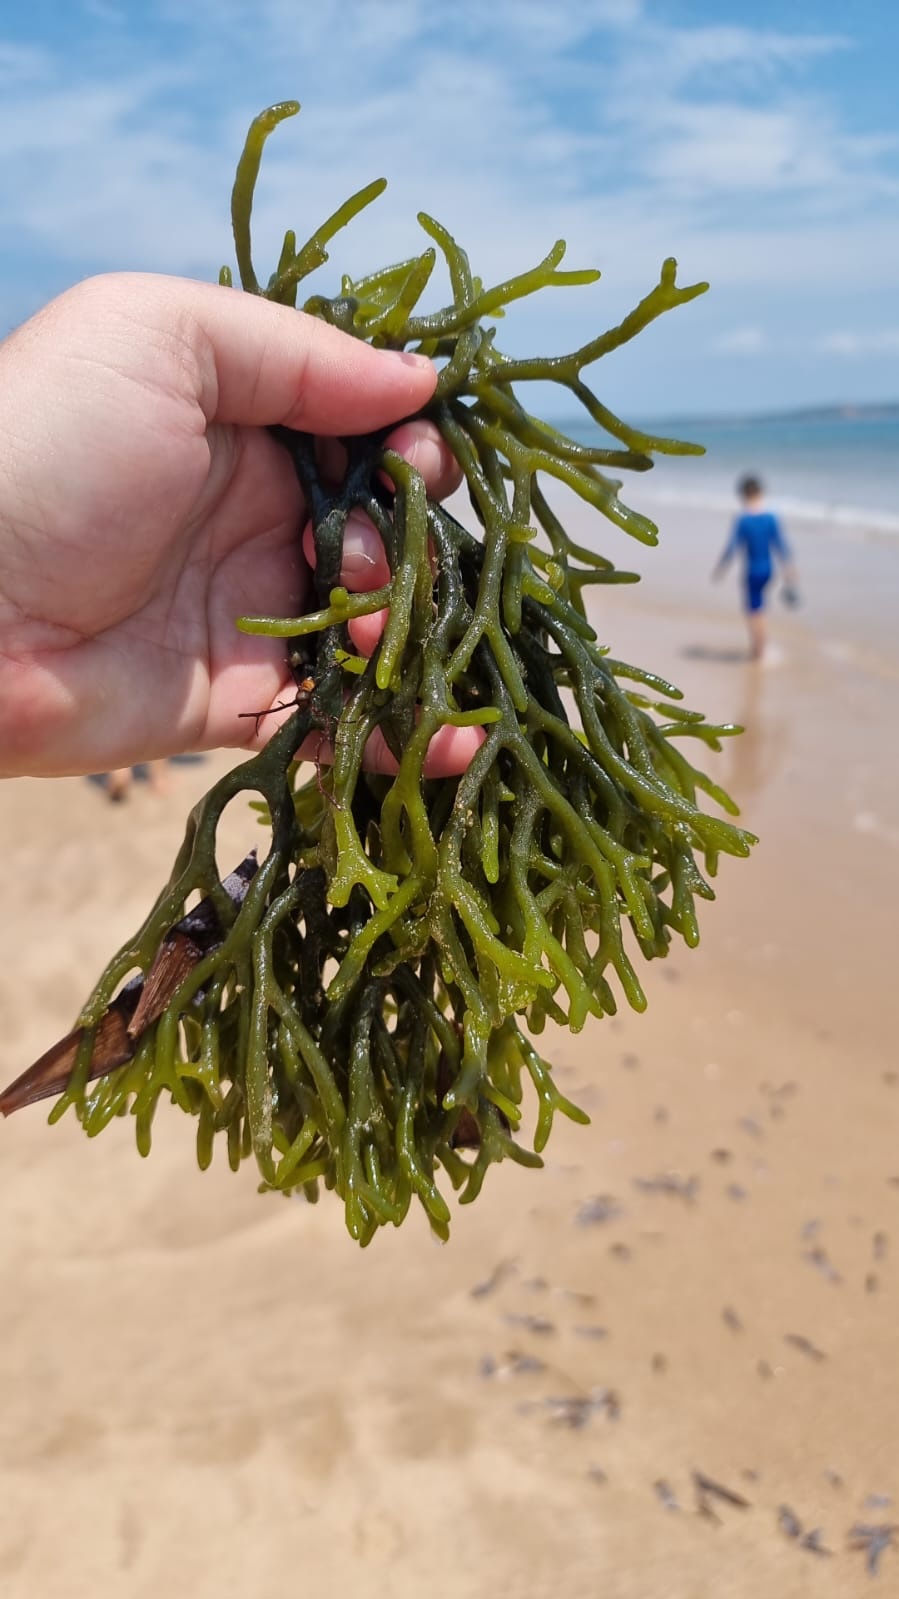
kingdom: Plantae
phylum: Chlorophyta
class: Ulvophyceae
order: Bryopsidales
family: Codiaceae
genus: Codium
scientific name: Codium fragile
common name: Dead man's fingers
